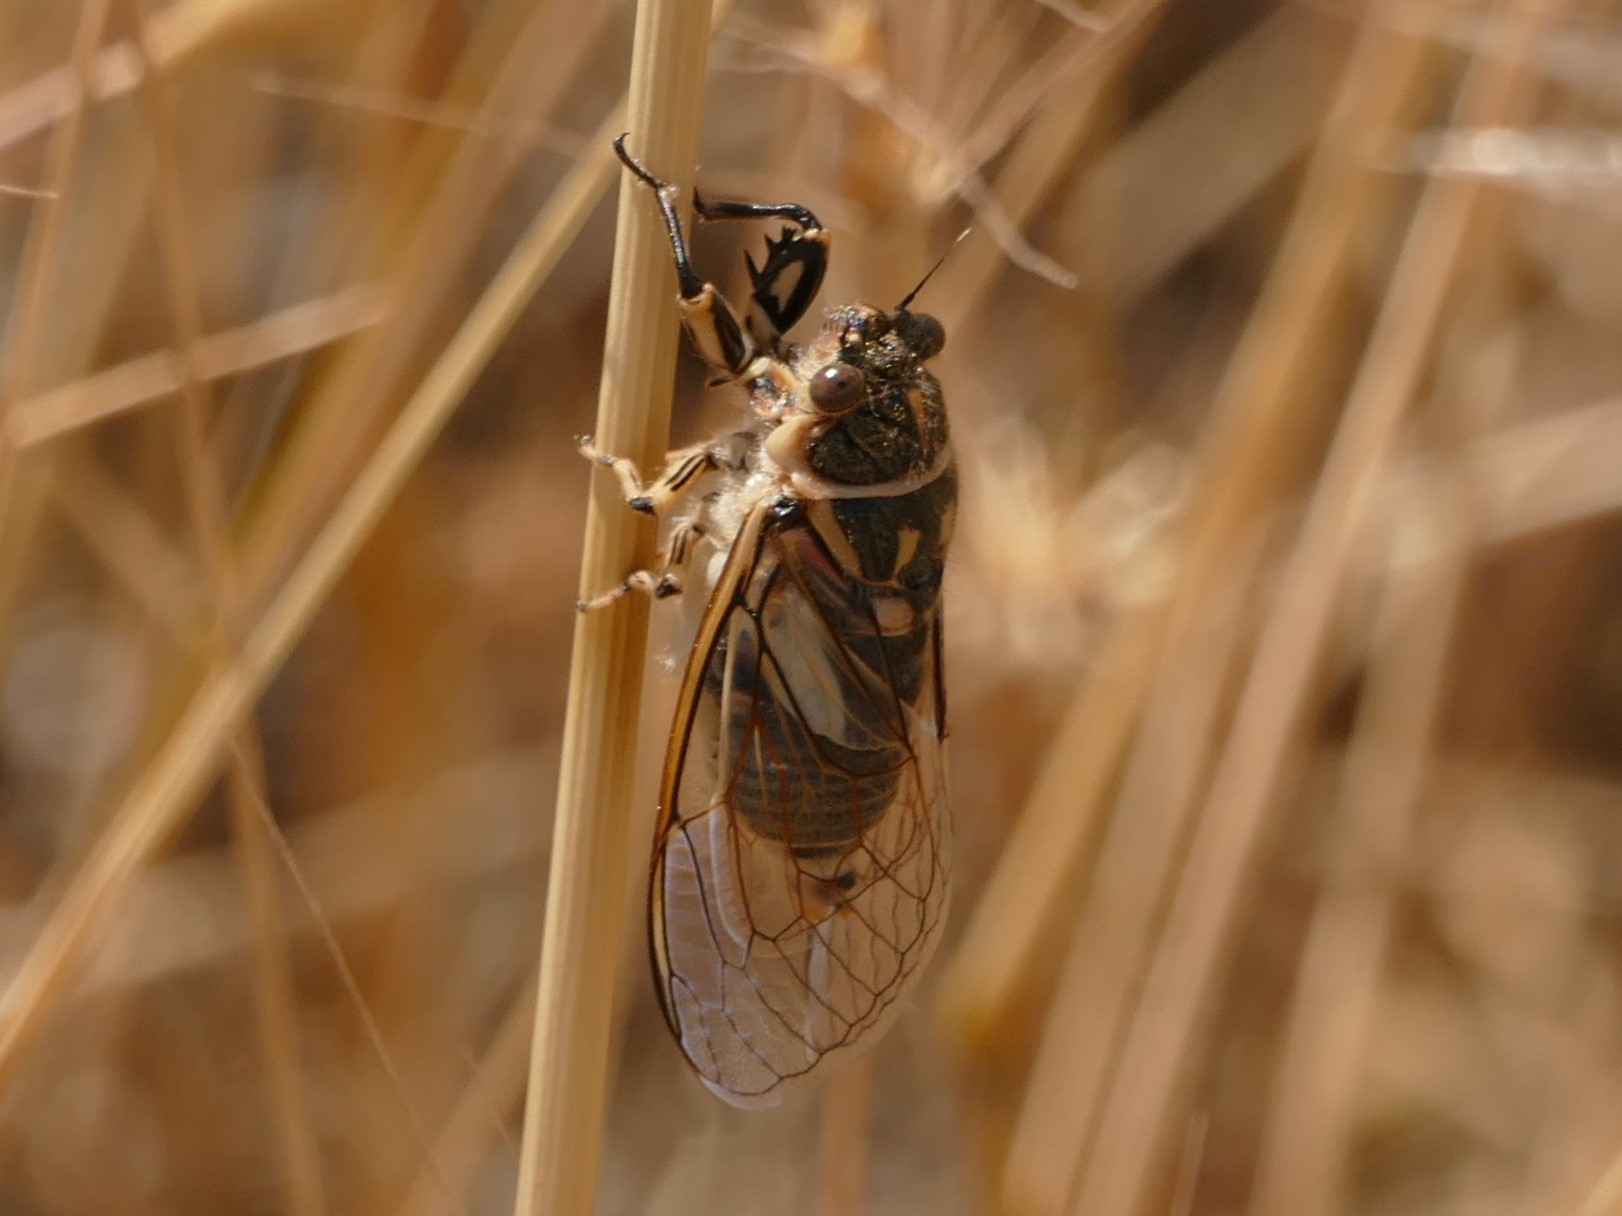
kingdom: Animalia
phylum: Arthropoda
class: Insecta
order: Hemiptera
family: Cicadidae
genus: Hilaphura
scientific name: Hilaphura varipes
